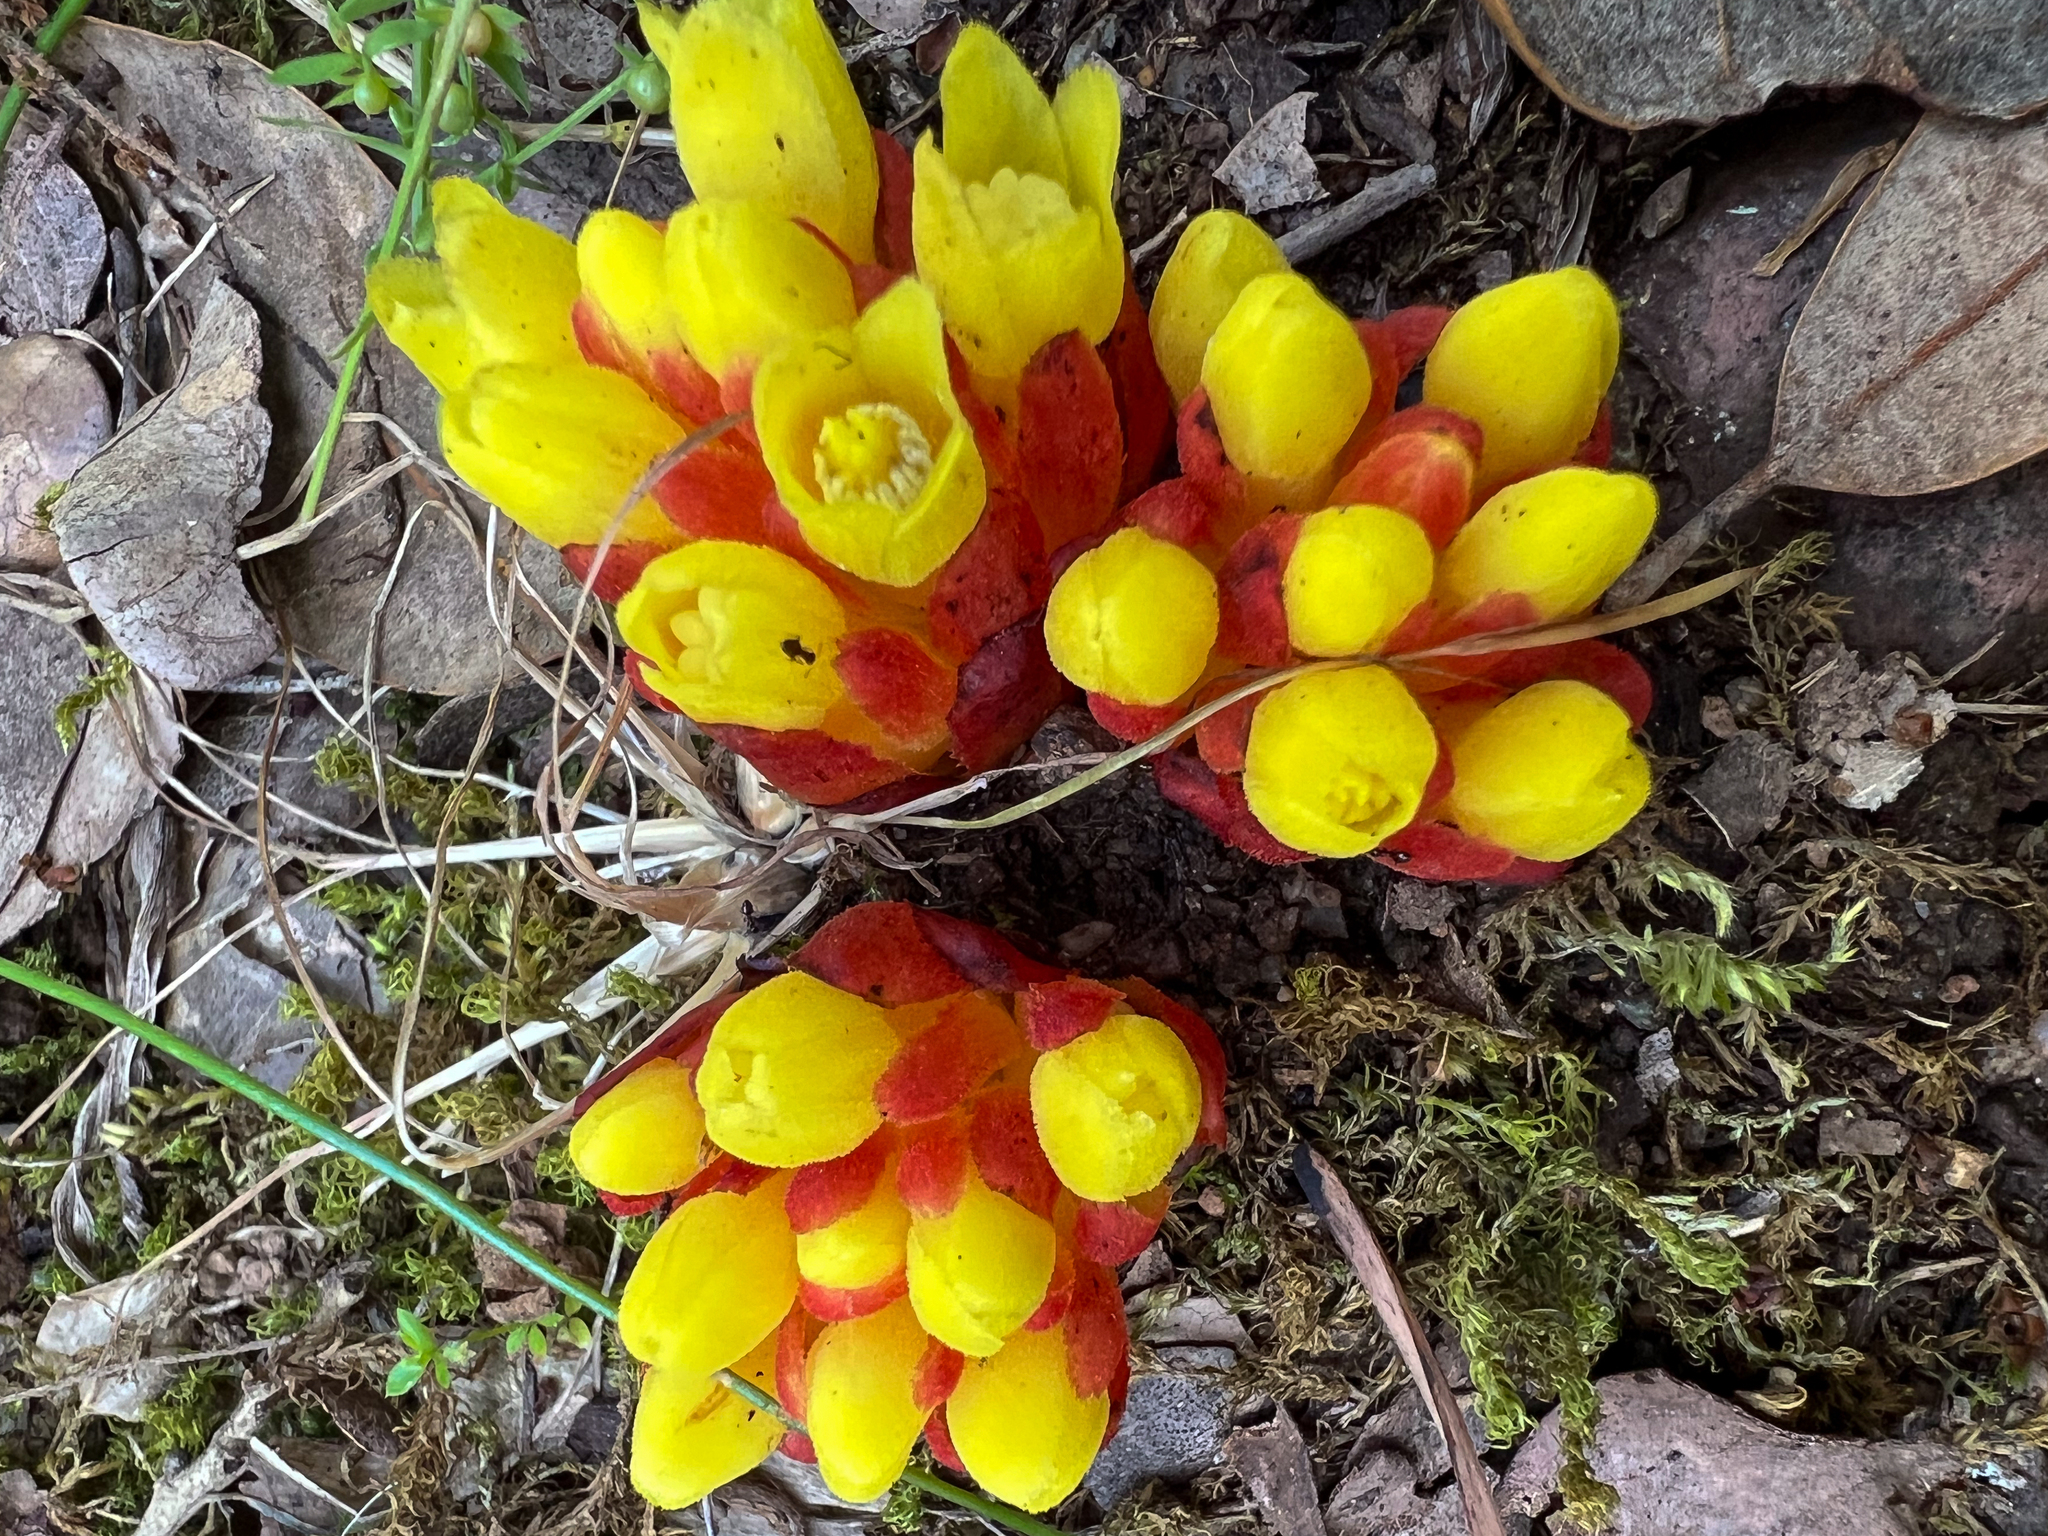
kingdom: Plantae
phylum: Tracheophyta
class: Magnoliopsida
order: Malvales
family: Cytinaceae
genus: Cytinus
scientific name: Cytinus hypocistis
